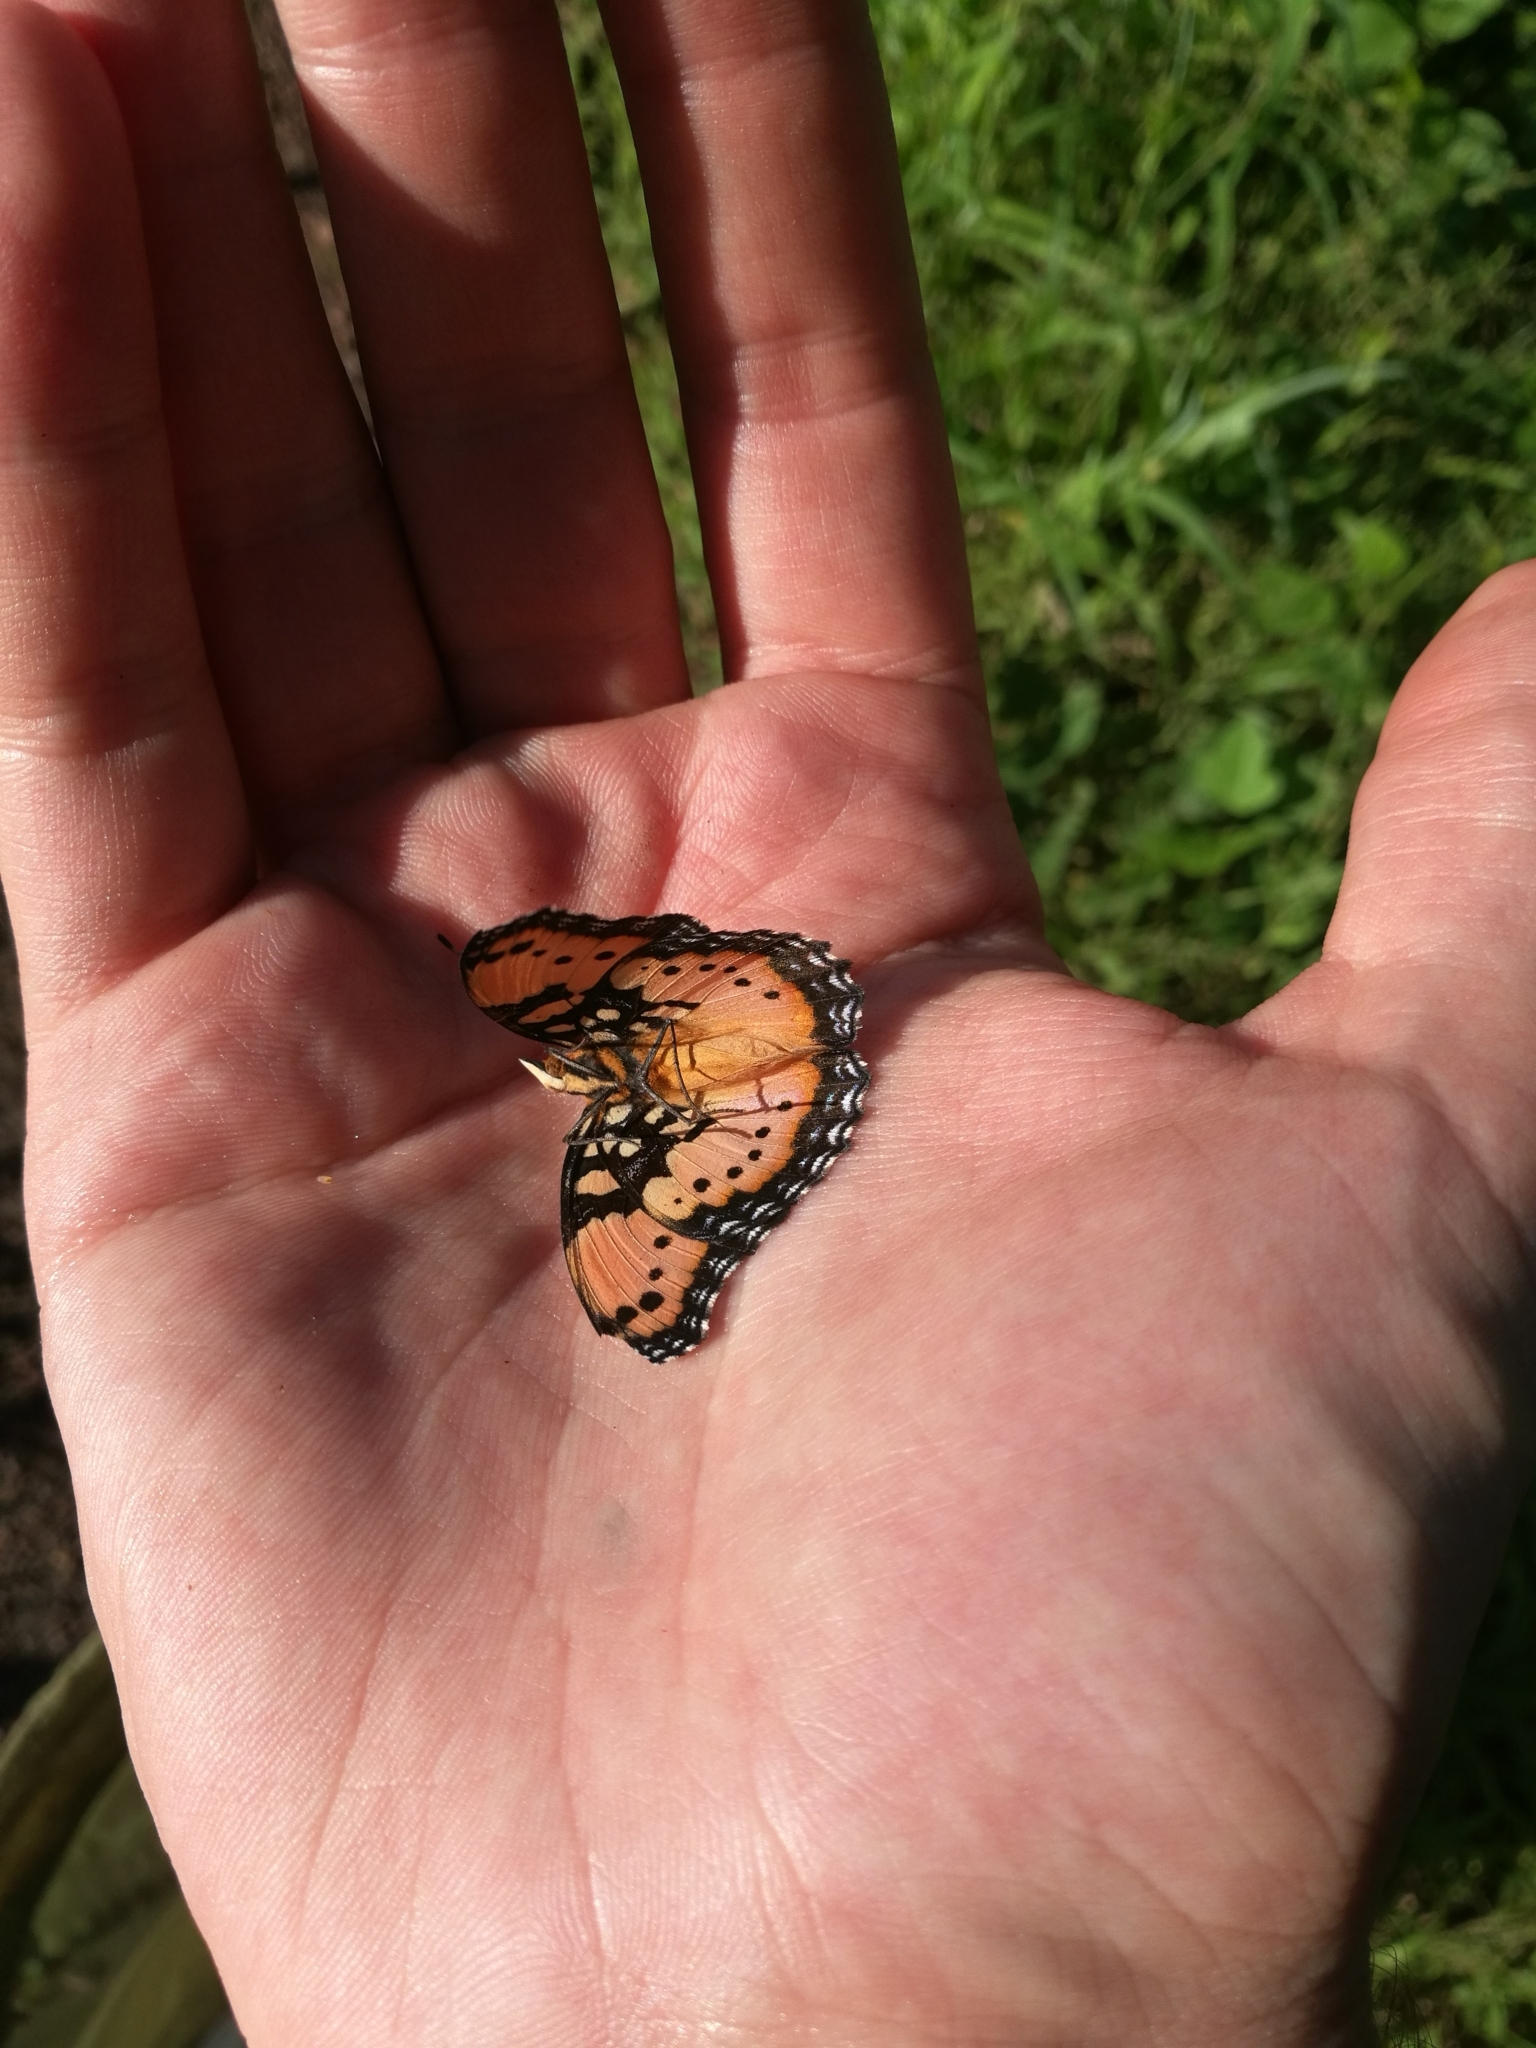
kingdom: Animalia
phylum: Arthropoda
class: Insecta
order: Lepidoptera
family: Nymphalidae
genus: Precis
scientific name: Precis octavia
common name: Gaudy commodore
